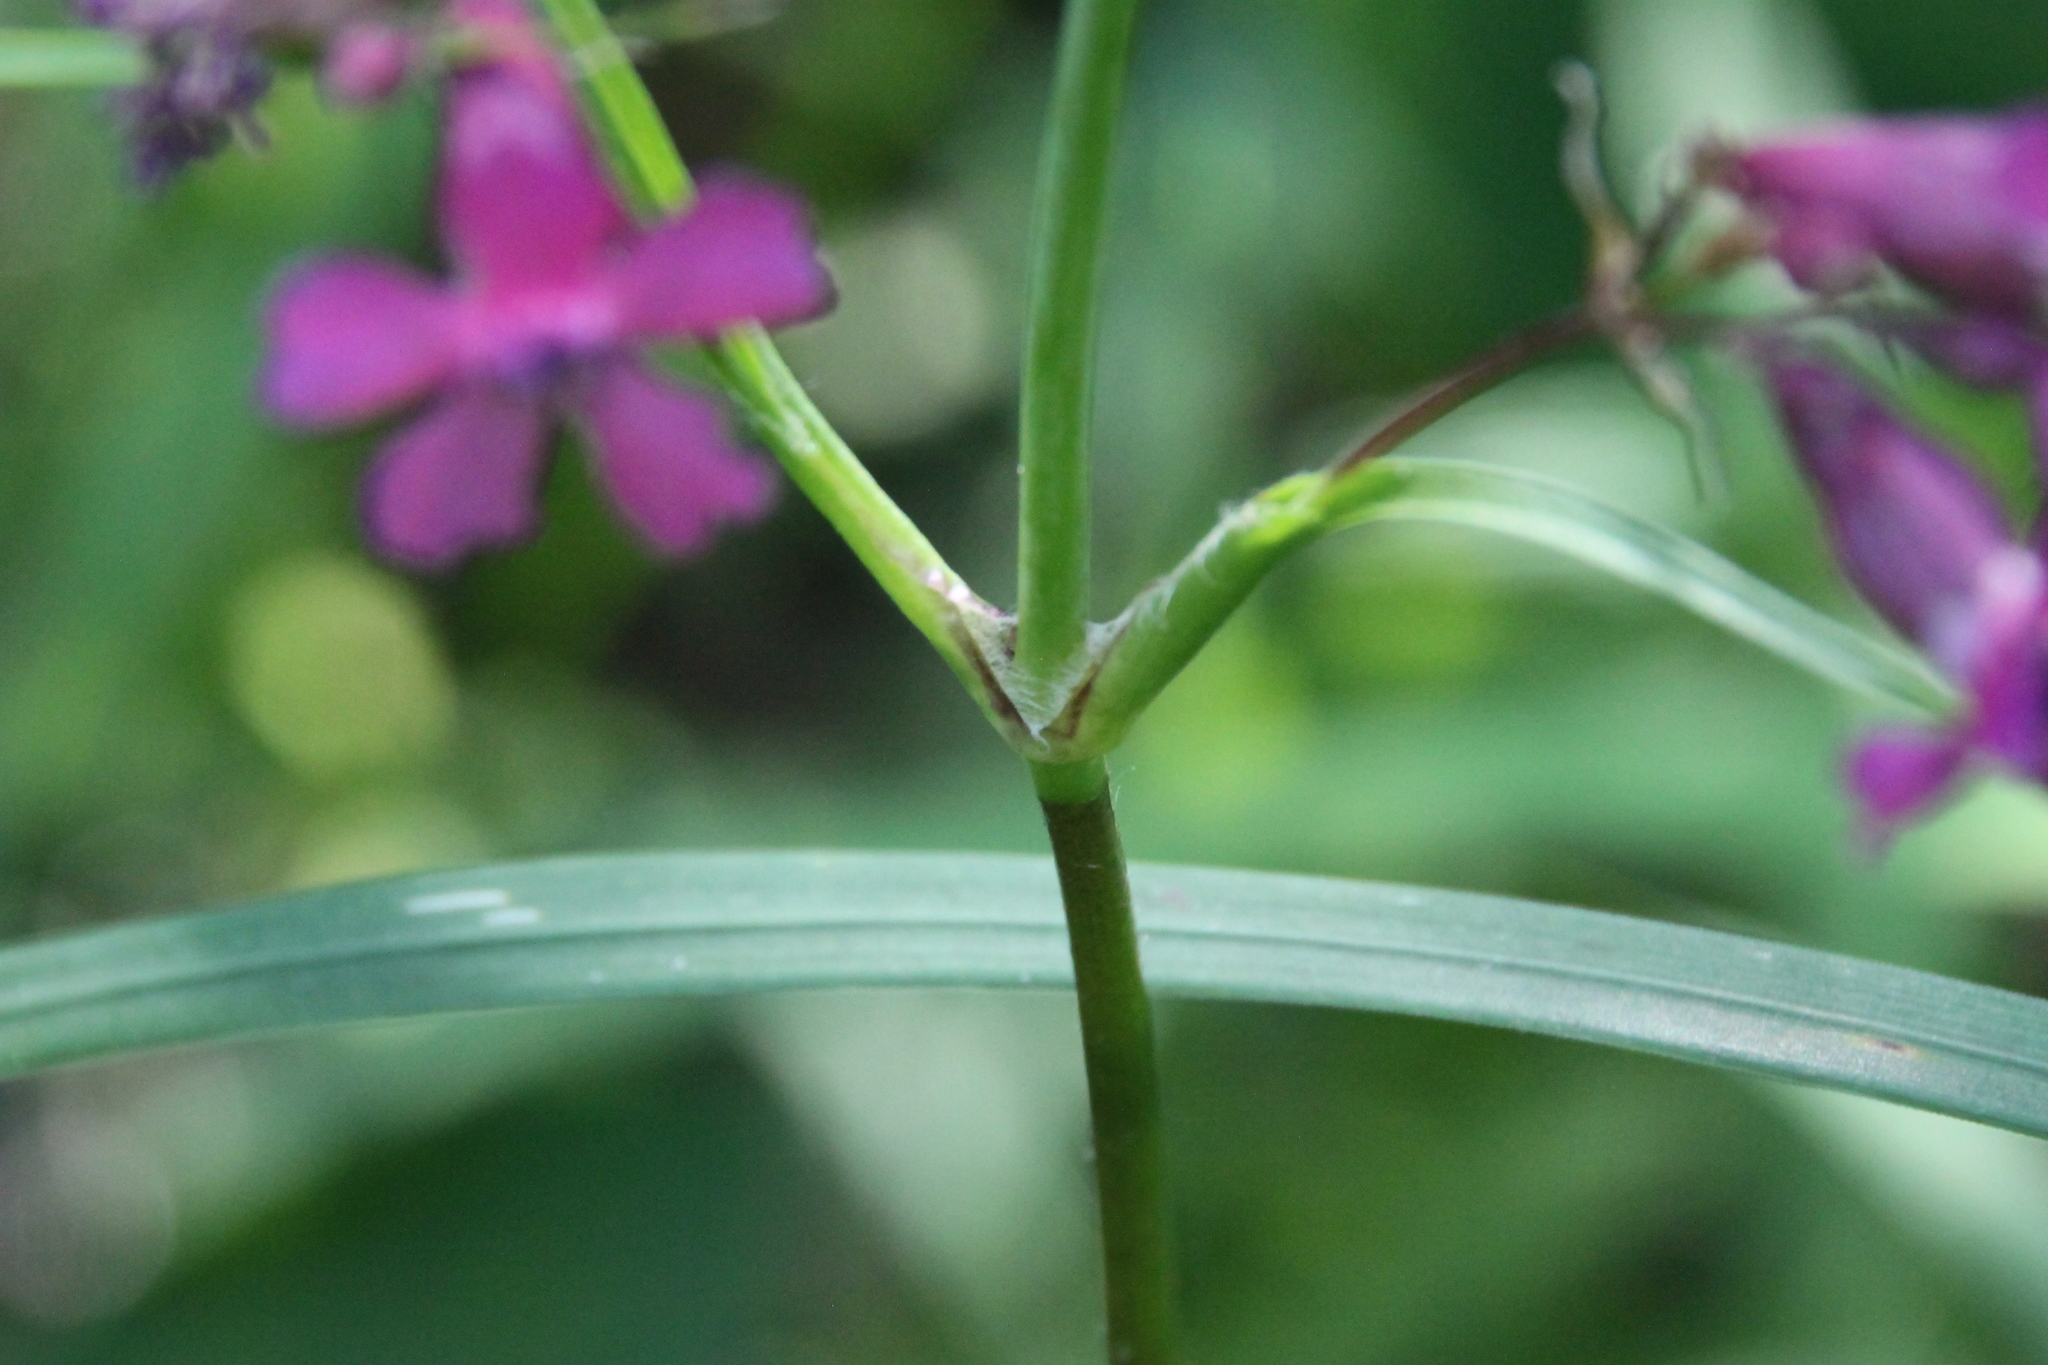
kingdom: Plantae
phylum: Tracheophyta
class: Magnoliopsida
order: Caryophyllales
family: Caryophyllaceae
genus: Viscaria
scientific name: Viscaria vulgaris
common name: Clammy campion
